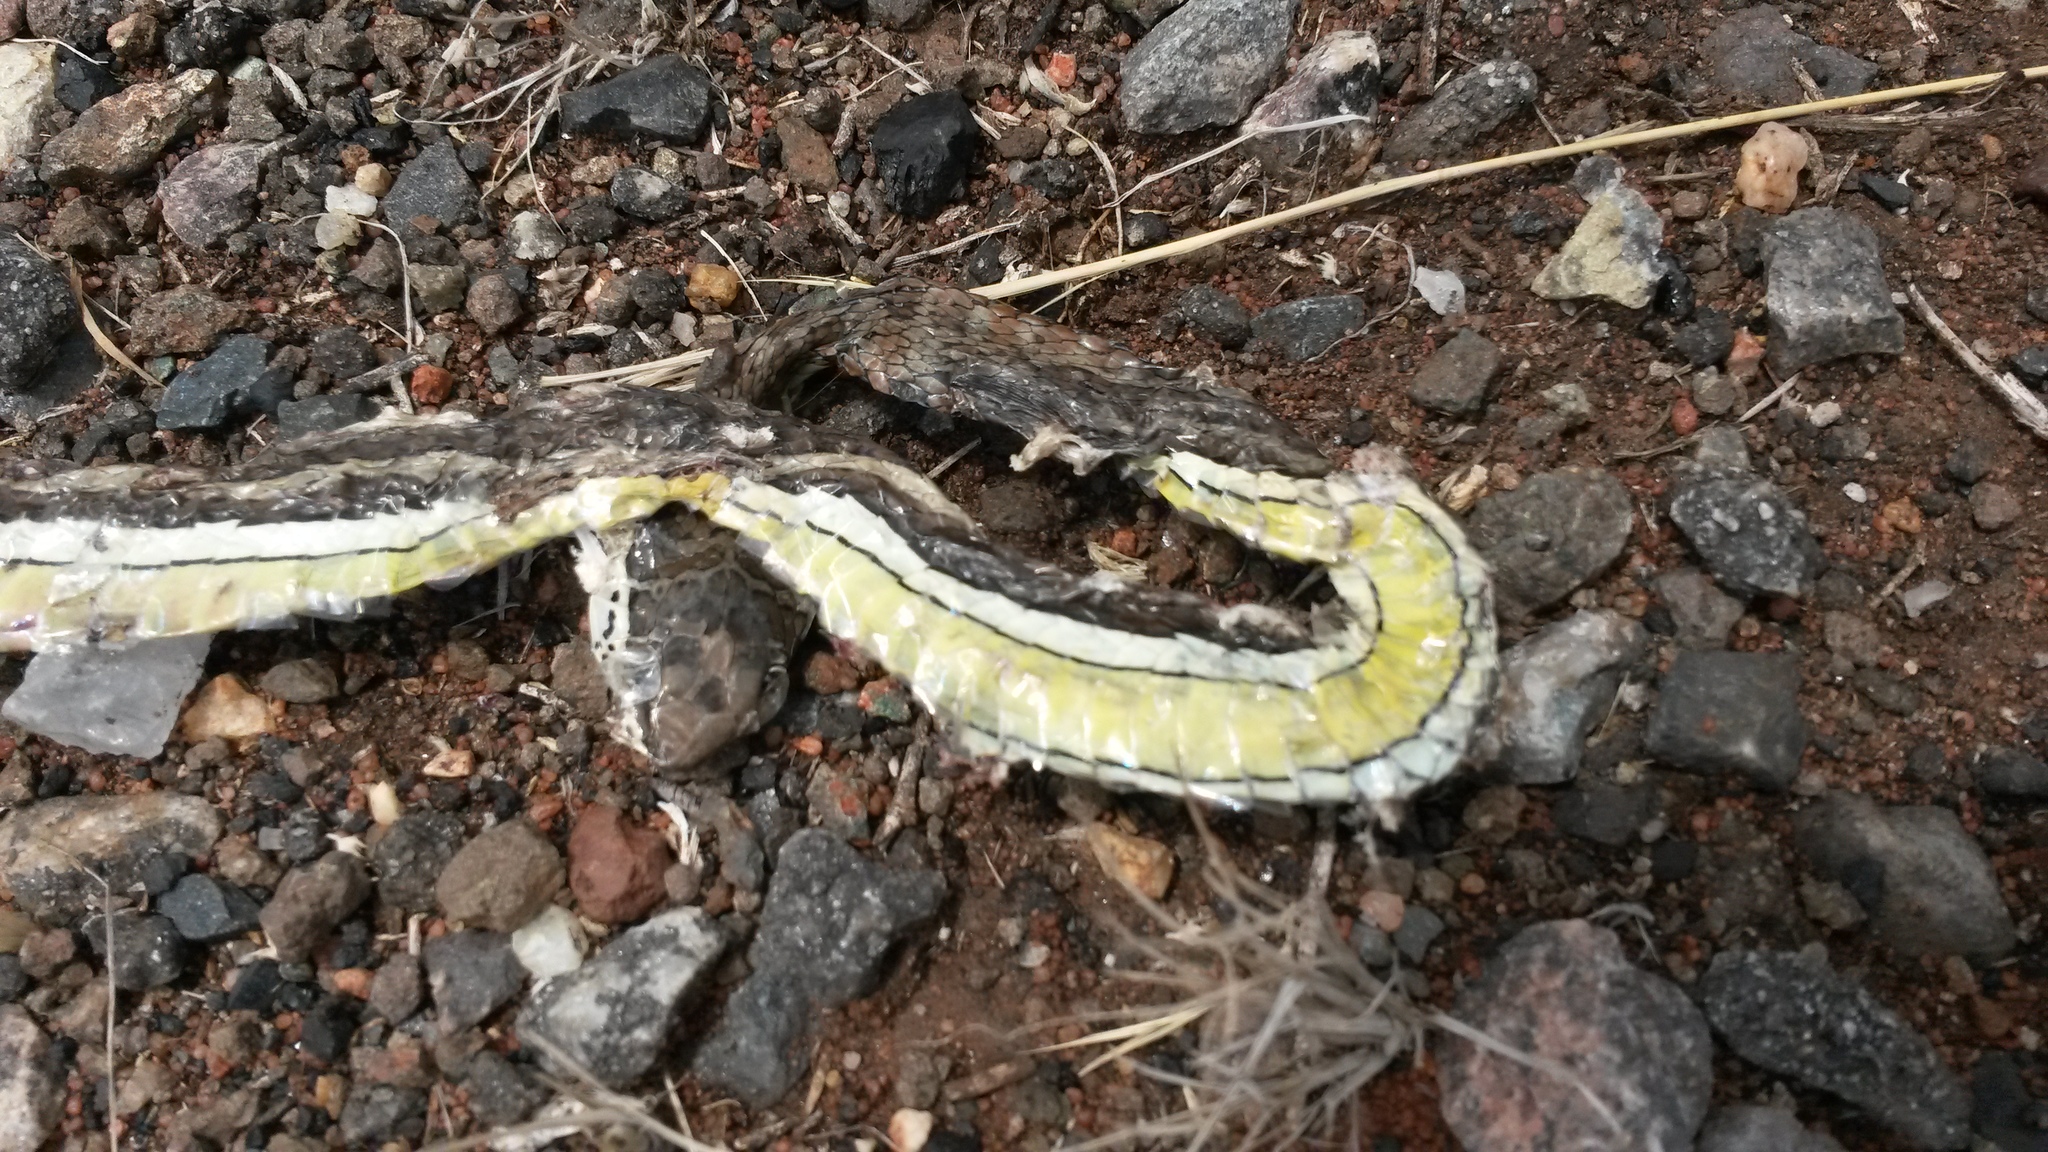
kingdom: Animalia
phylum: Chordata
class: Squamata
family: Psammophiidae
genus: Psammophis
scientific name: Psammophis subtaeniatus
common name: Stripe-bellied sand snake
